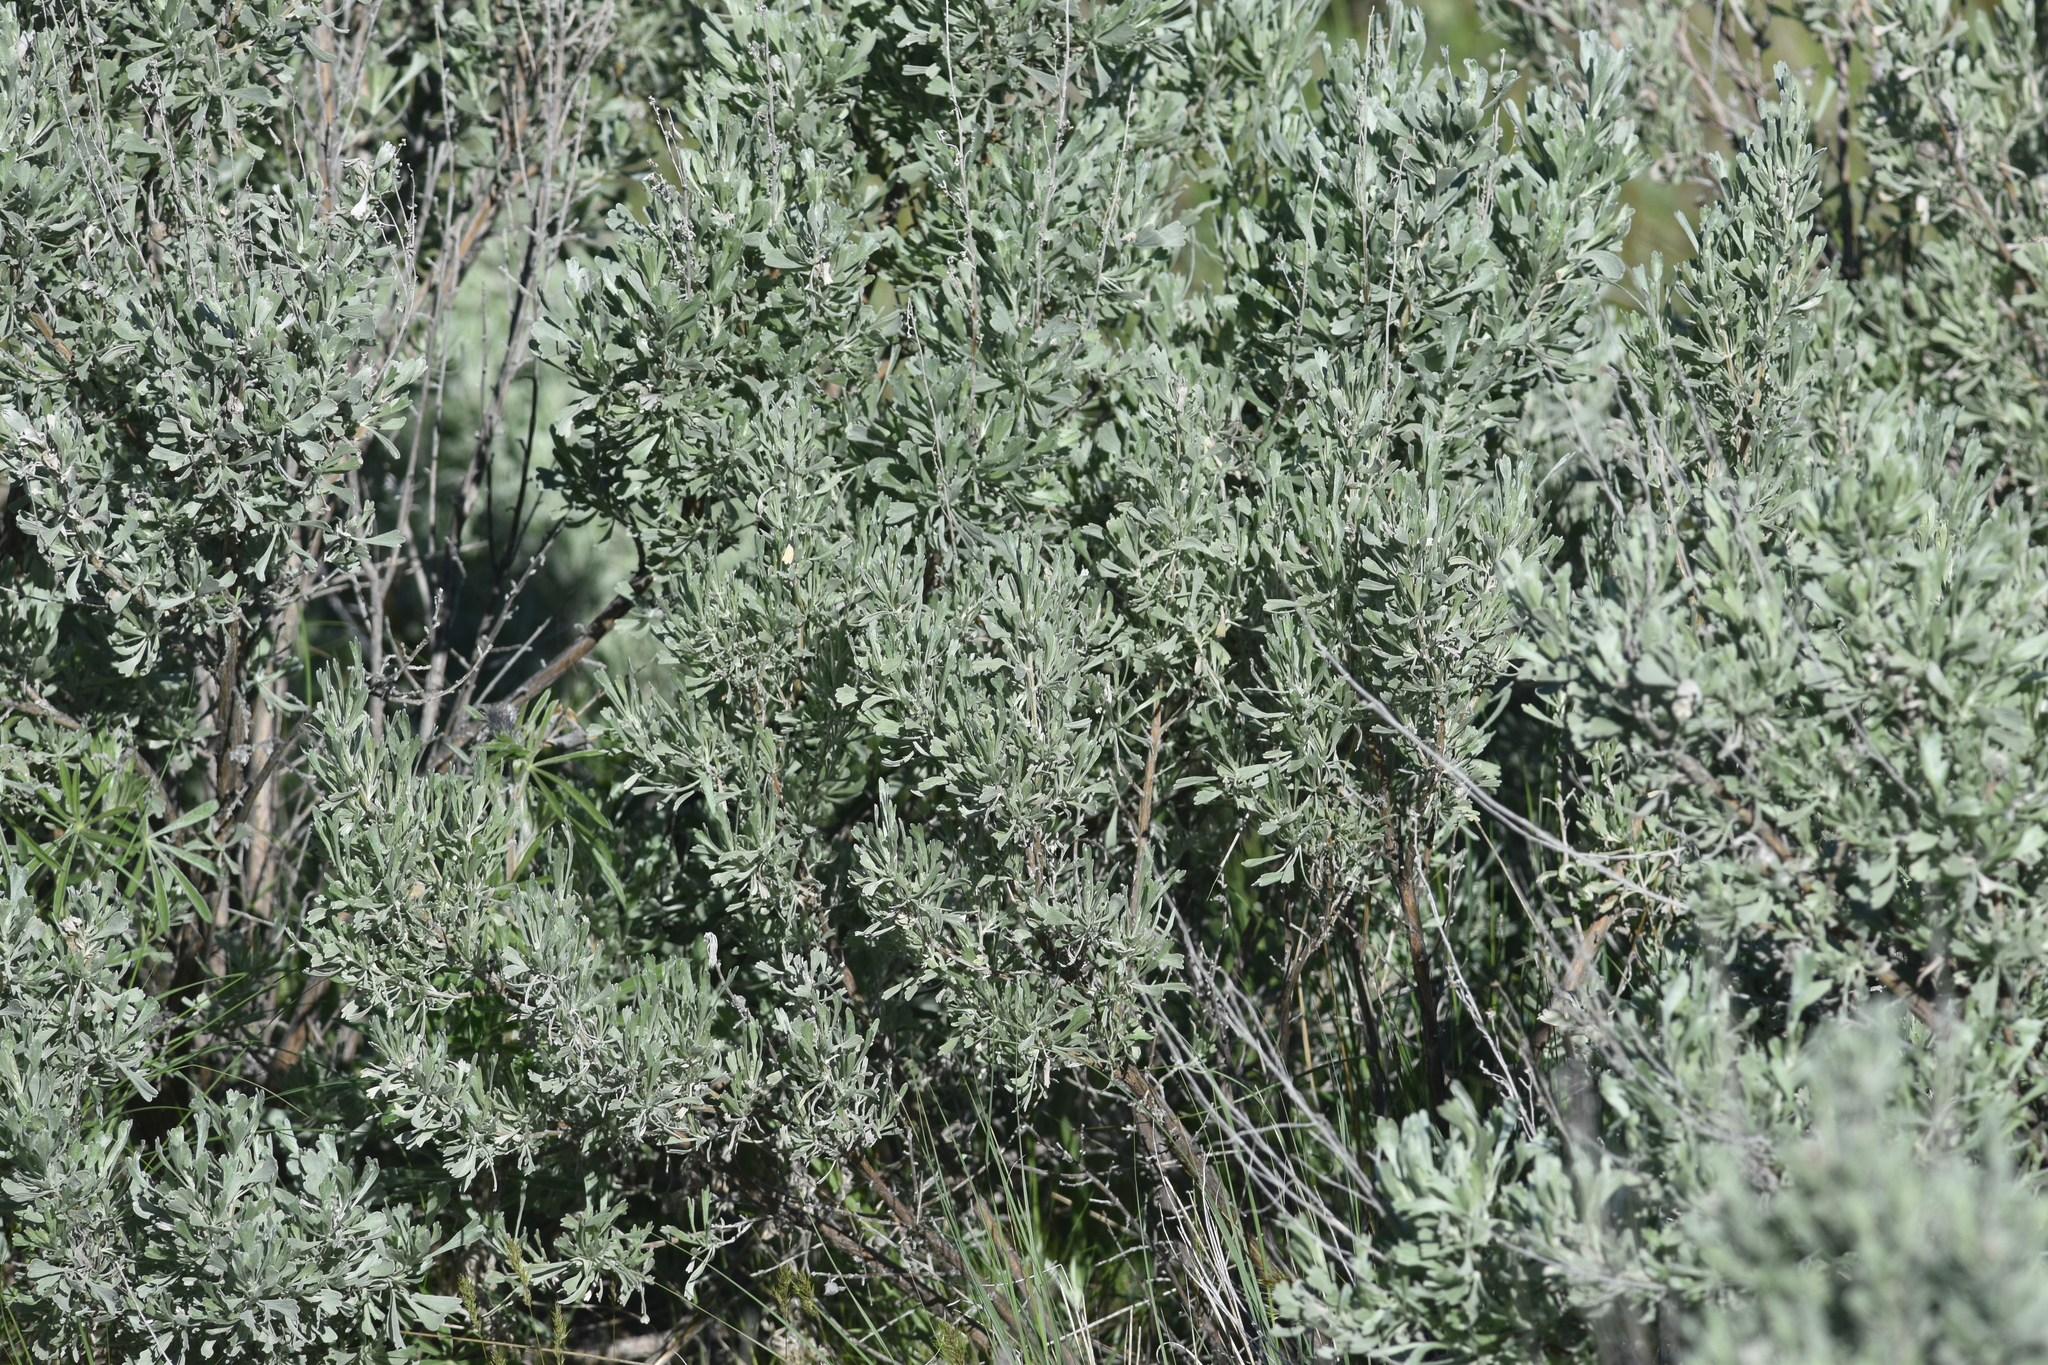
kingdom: Plantae
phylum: Tracheophyta
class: Magnoliopsida
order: Asterales
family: Asteraceae
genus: Artemisia
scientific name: Artemisia tridentata
